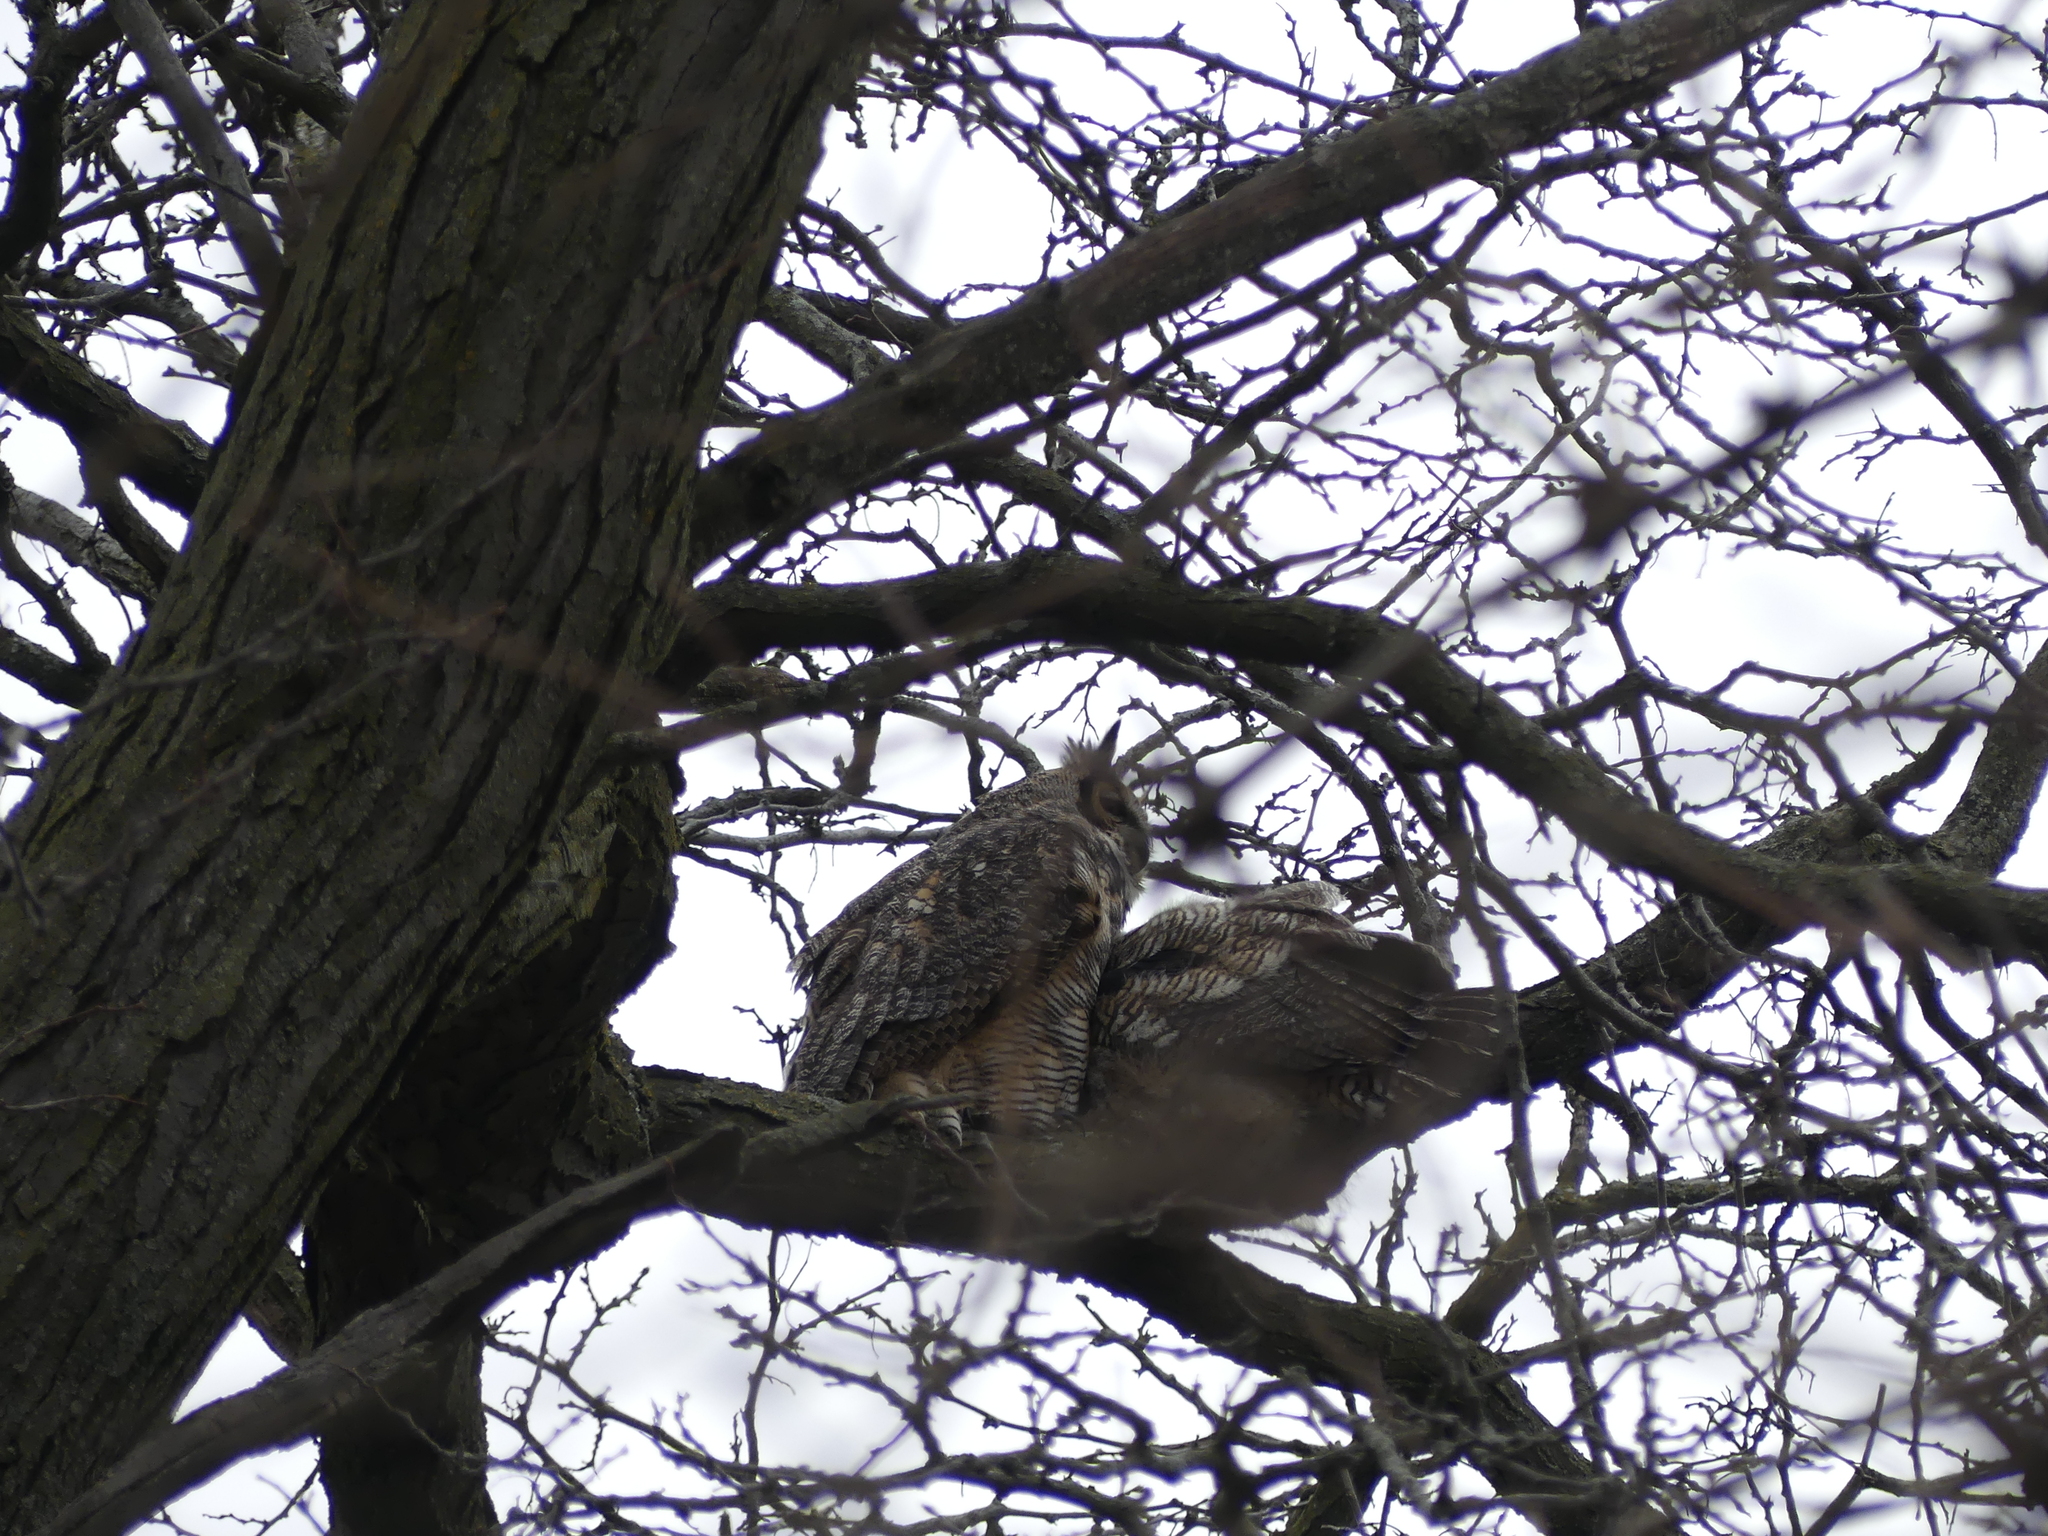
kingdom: Animalia
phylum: Chordata
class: Aves
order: Strigiformes
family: Strigidae
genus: Bubo
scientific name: Bubo virginianus
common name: Great horned owl
